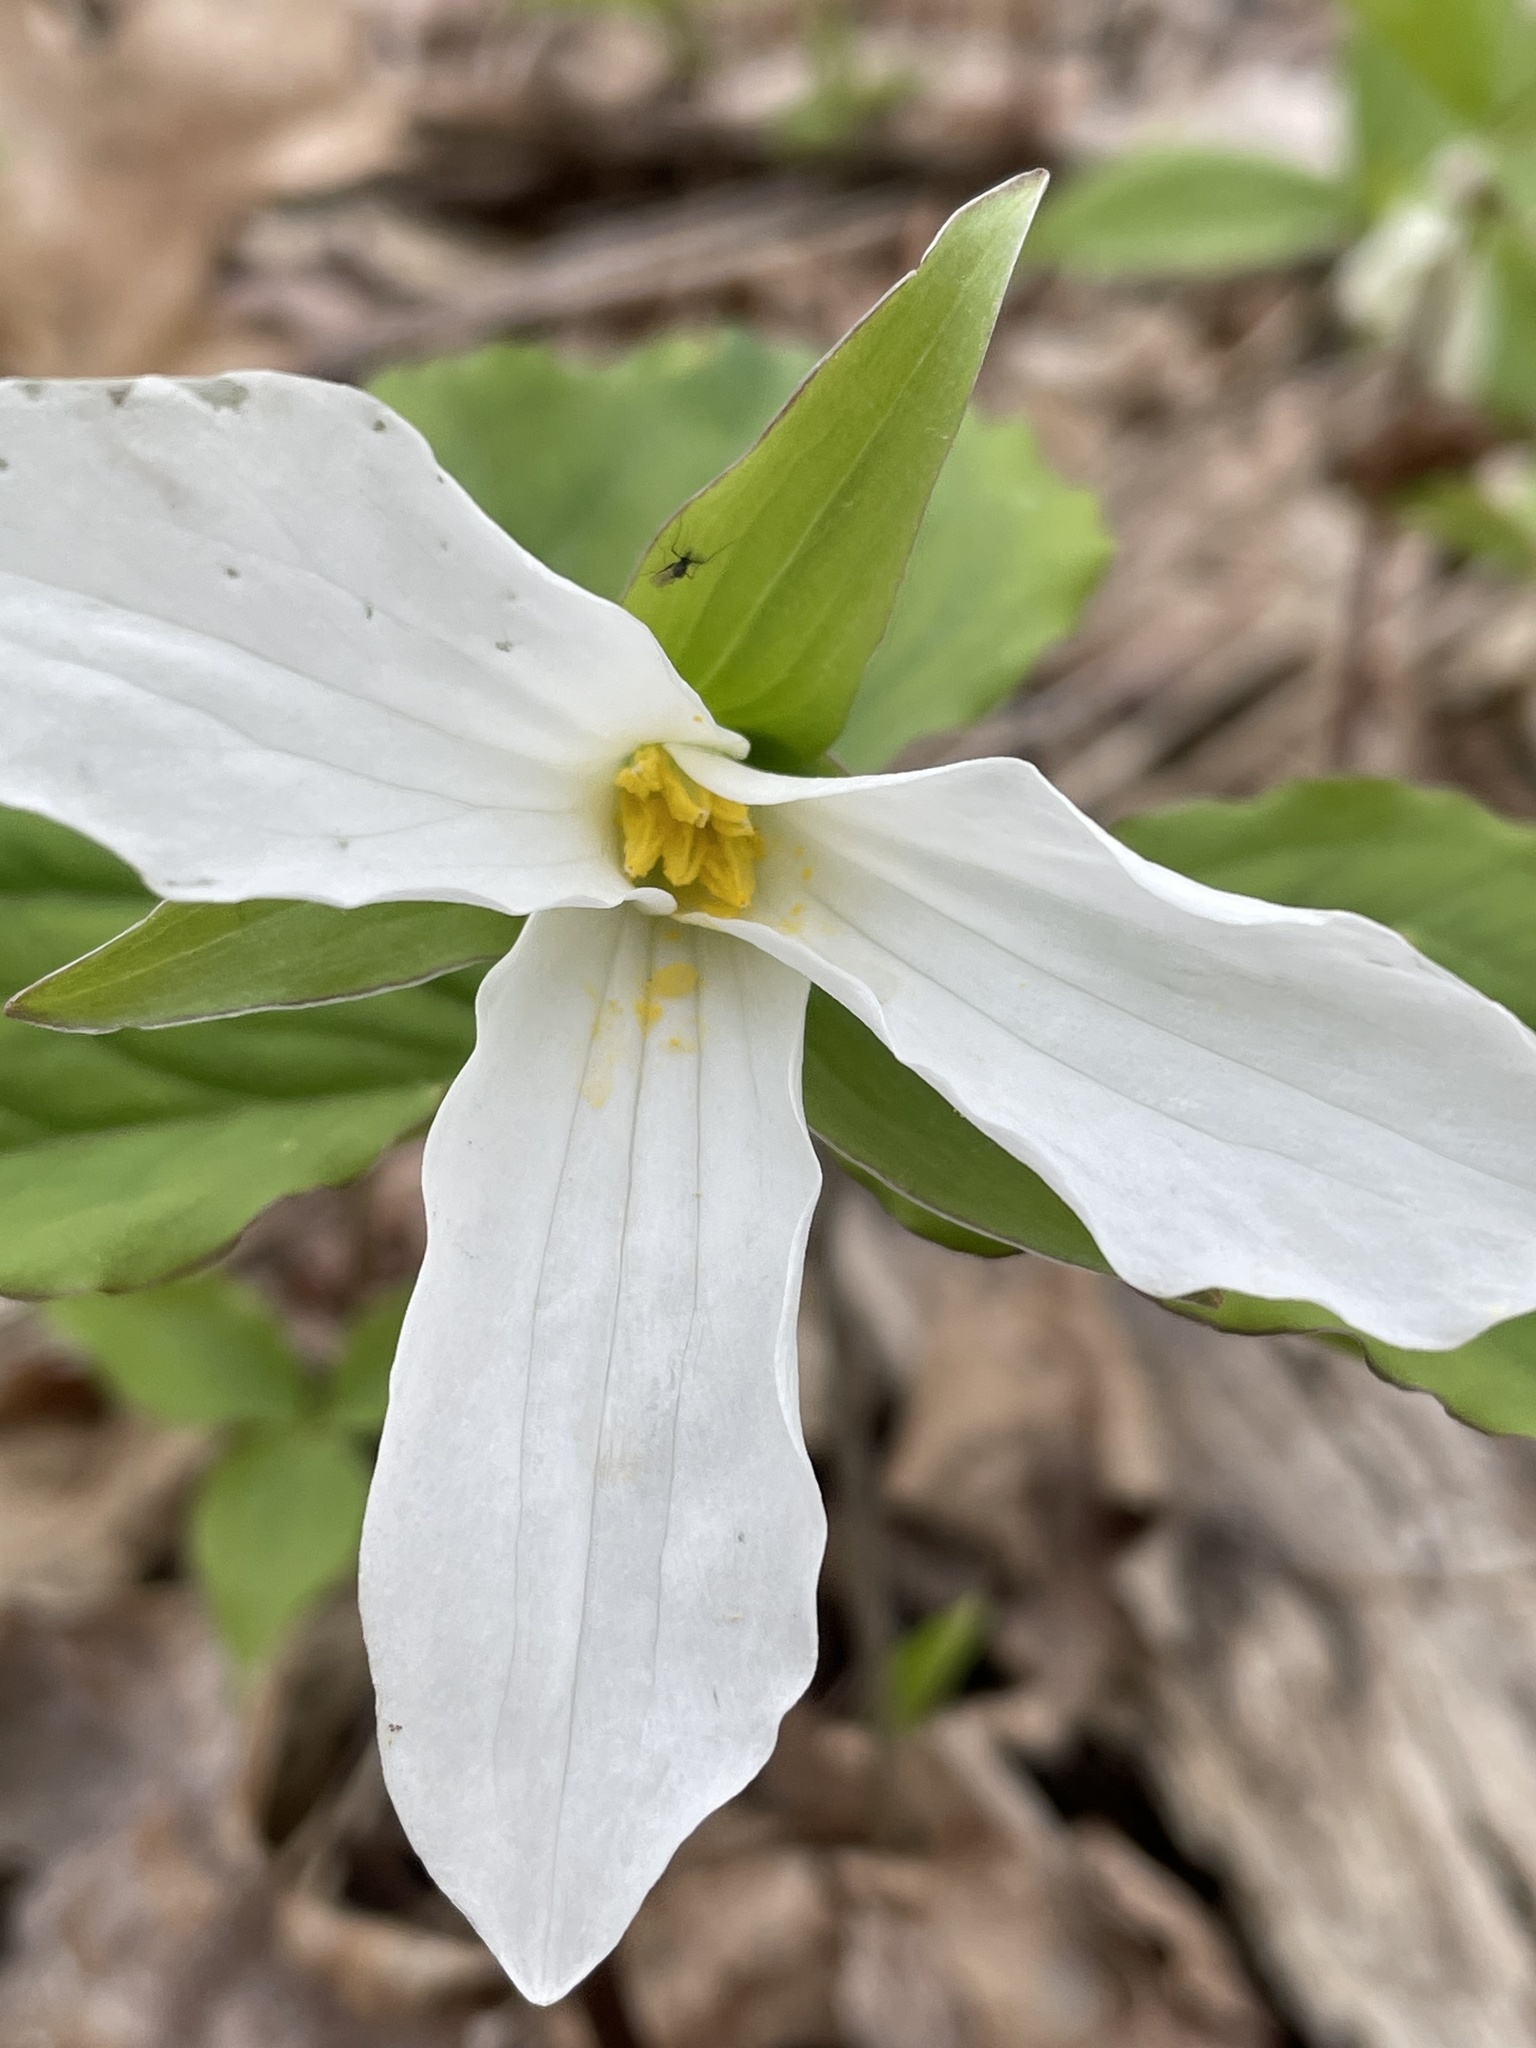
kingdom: Plantae
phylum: Tracheophyta
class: Liliopsida
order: Liliales
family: Melanthiaceae
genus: Trillium
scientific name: Trillium grandiflorum
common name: Great white trillium
